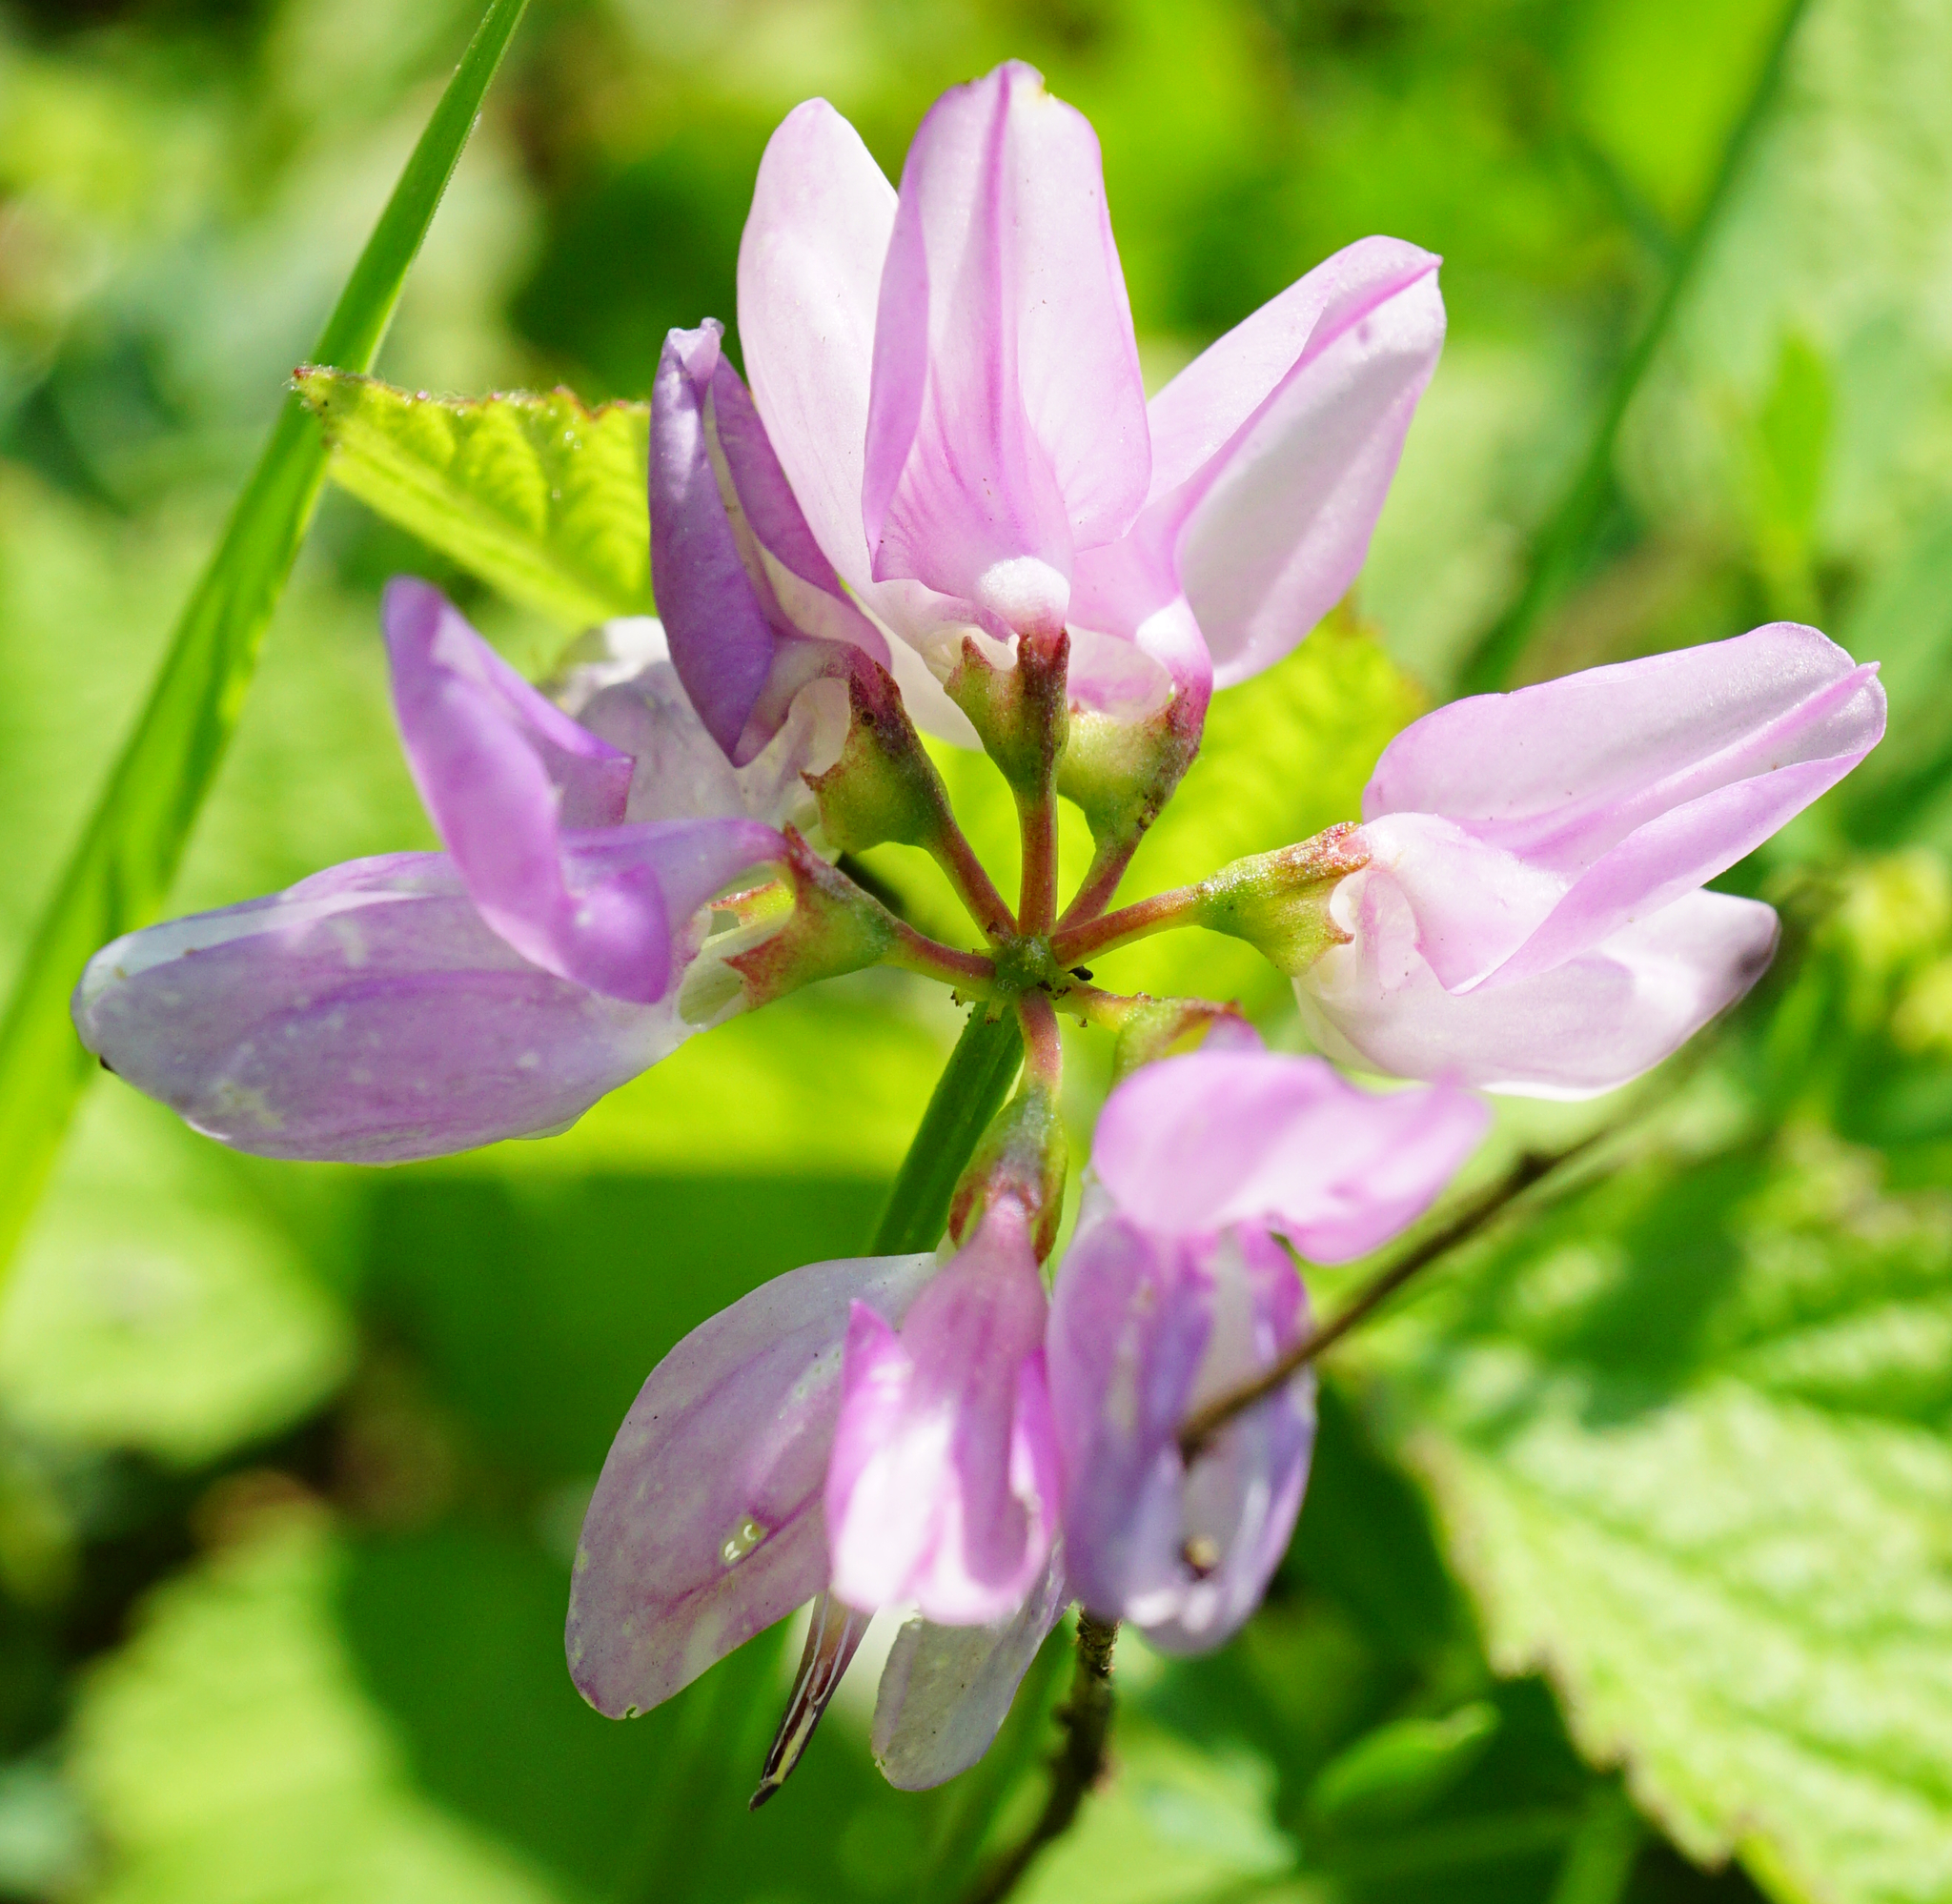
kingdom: Plantae
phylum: Tracheophyta
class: Magnoliopsida
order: Fabales
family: Fabaceae
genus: Coronilla
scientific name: Coronilla varia
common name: Crownvetch
